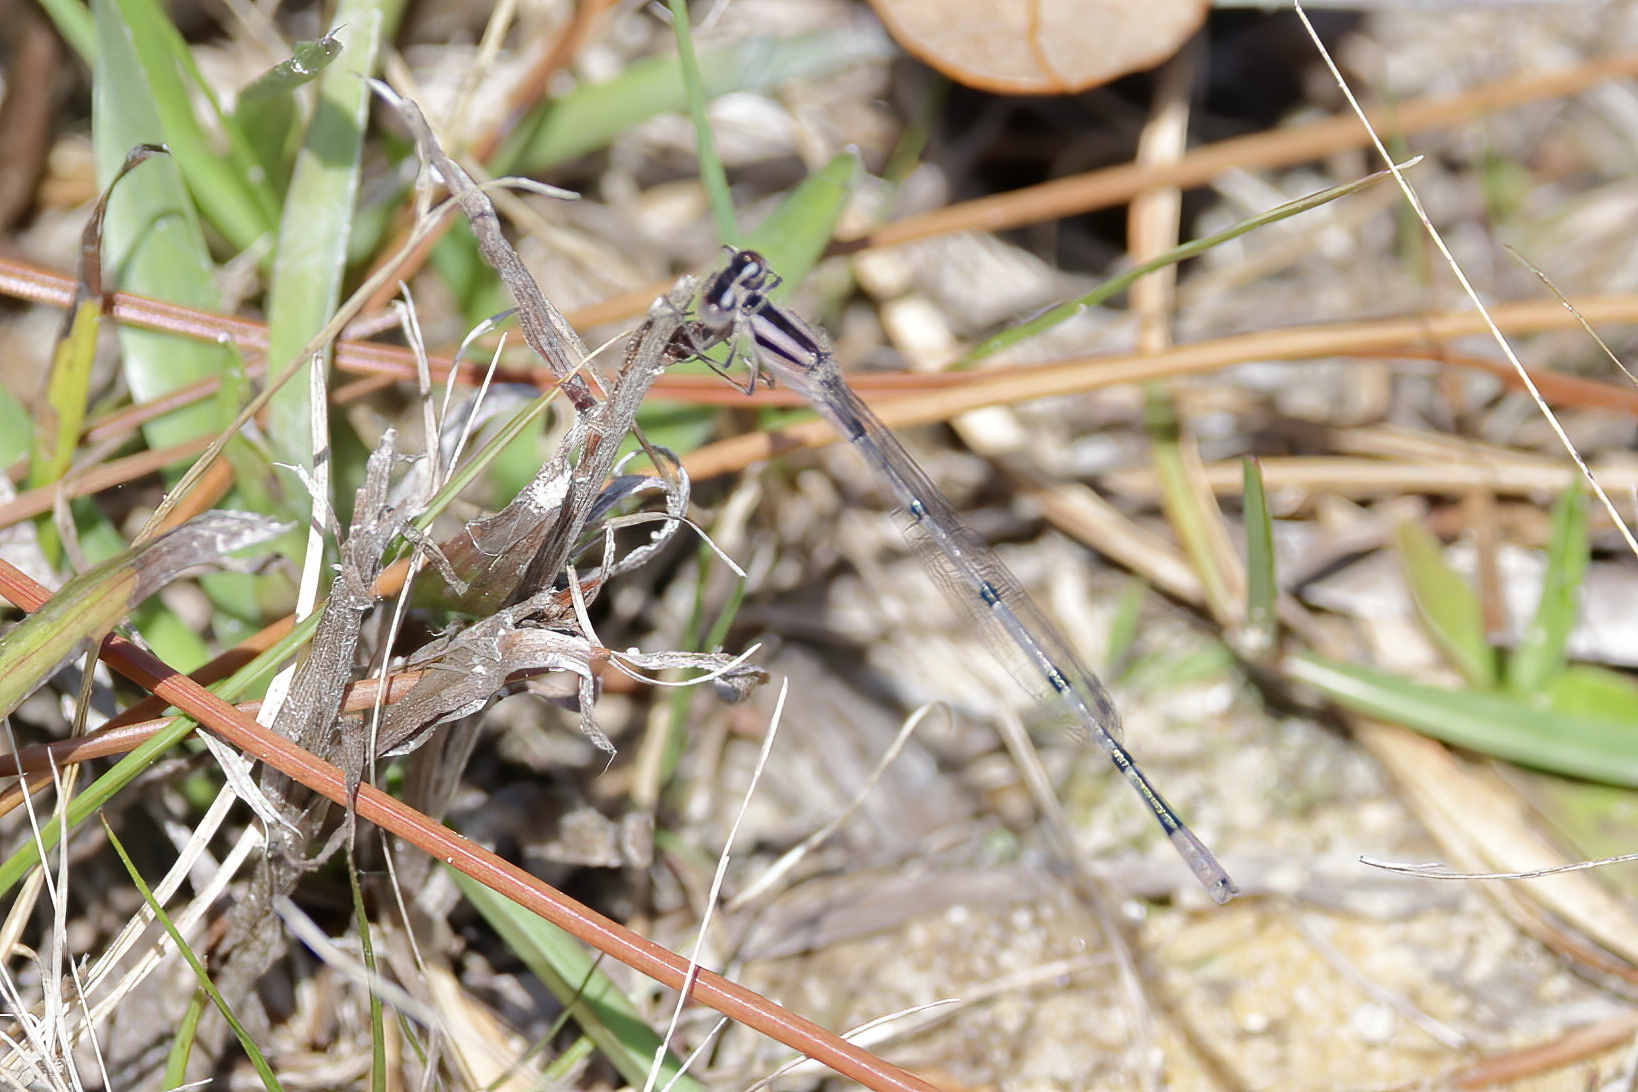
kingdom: Animalia
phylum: Arthropoda
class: Insecta
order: Odonata
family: Coenagrionidae
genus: Enallagma
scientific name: Enallagma doubledayi
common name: Atlantic bluet
